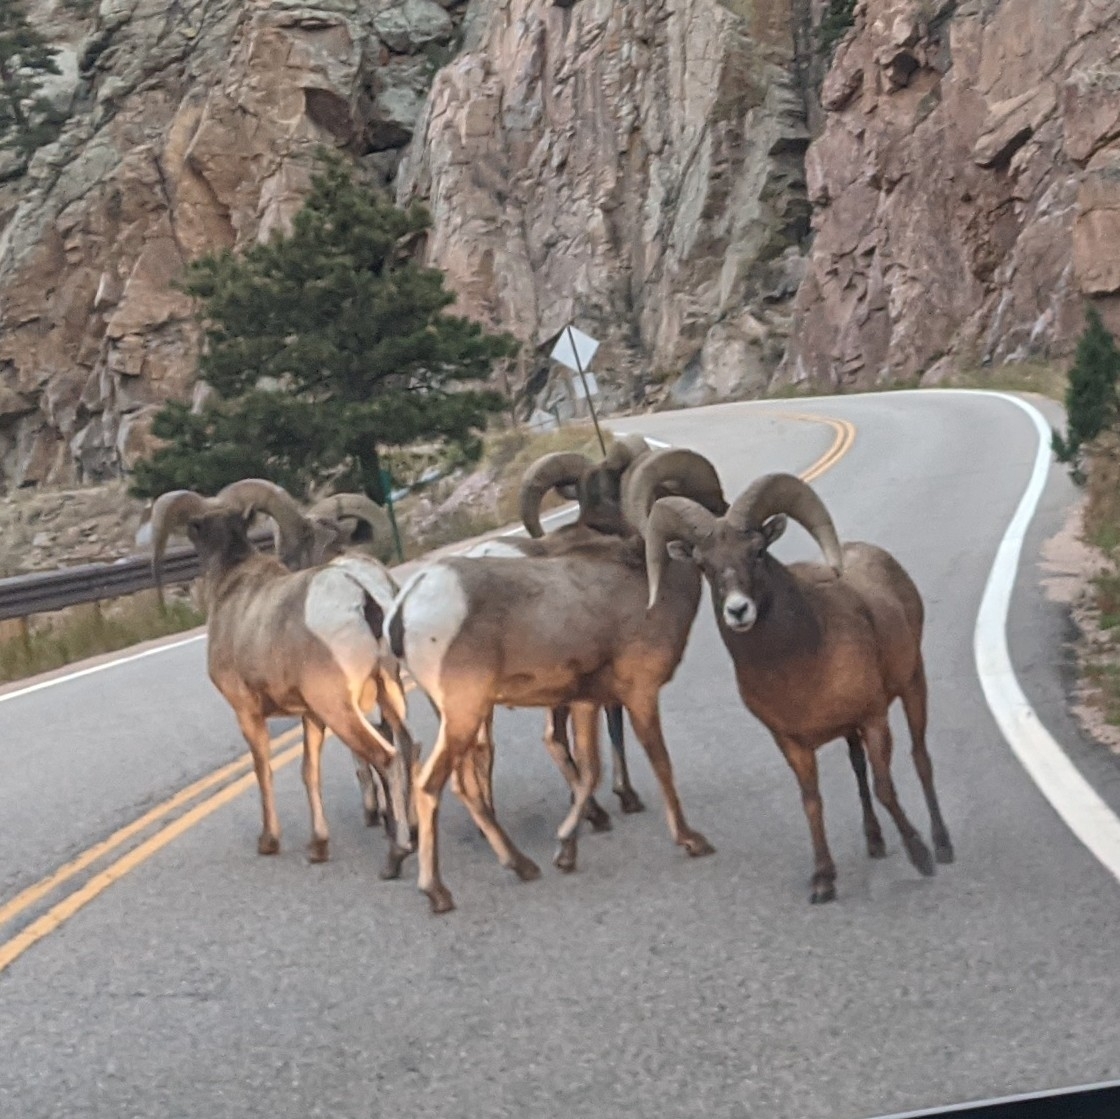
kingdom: Animalia
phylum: Chordata
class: Mammalia
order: Artiodactyla
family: Bovidae
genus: Ovis
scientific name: Ovis canadensis
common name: Bighorn sheep
